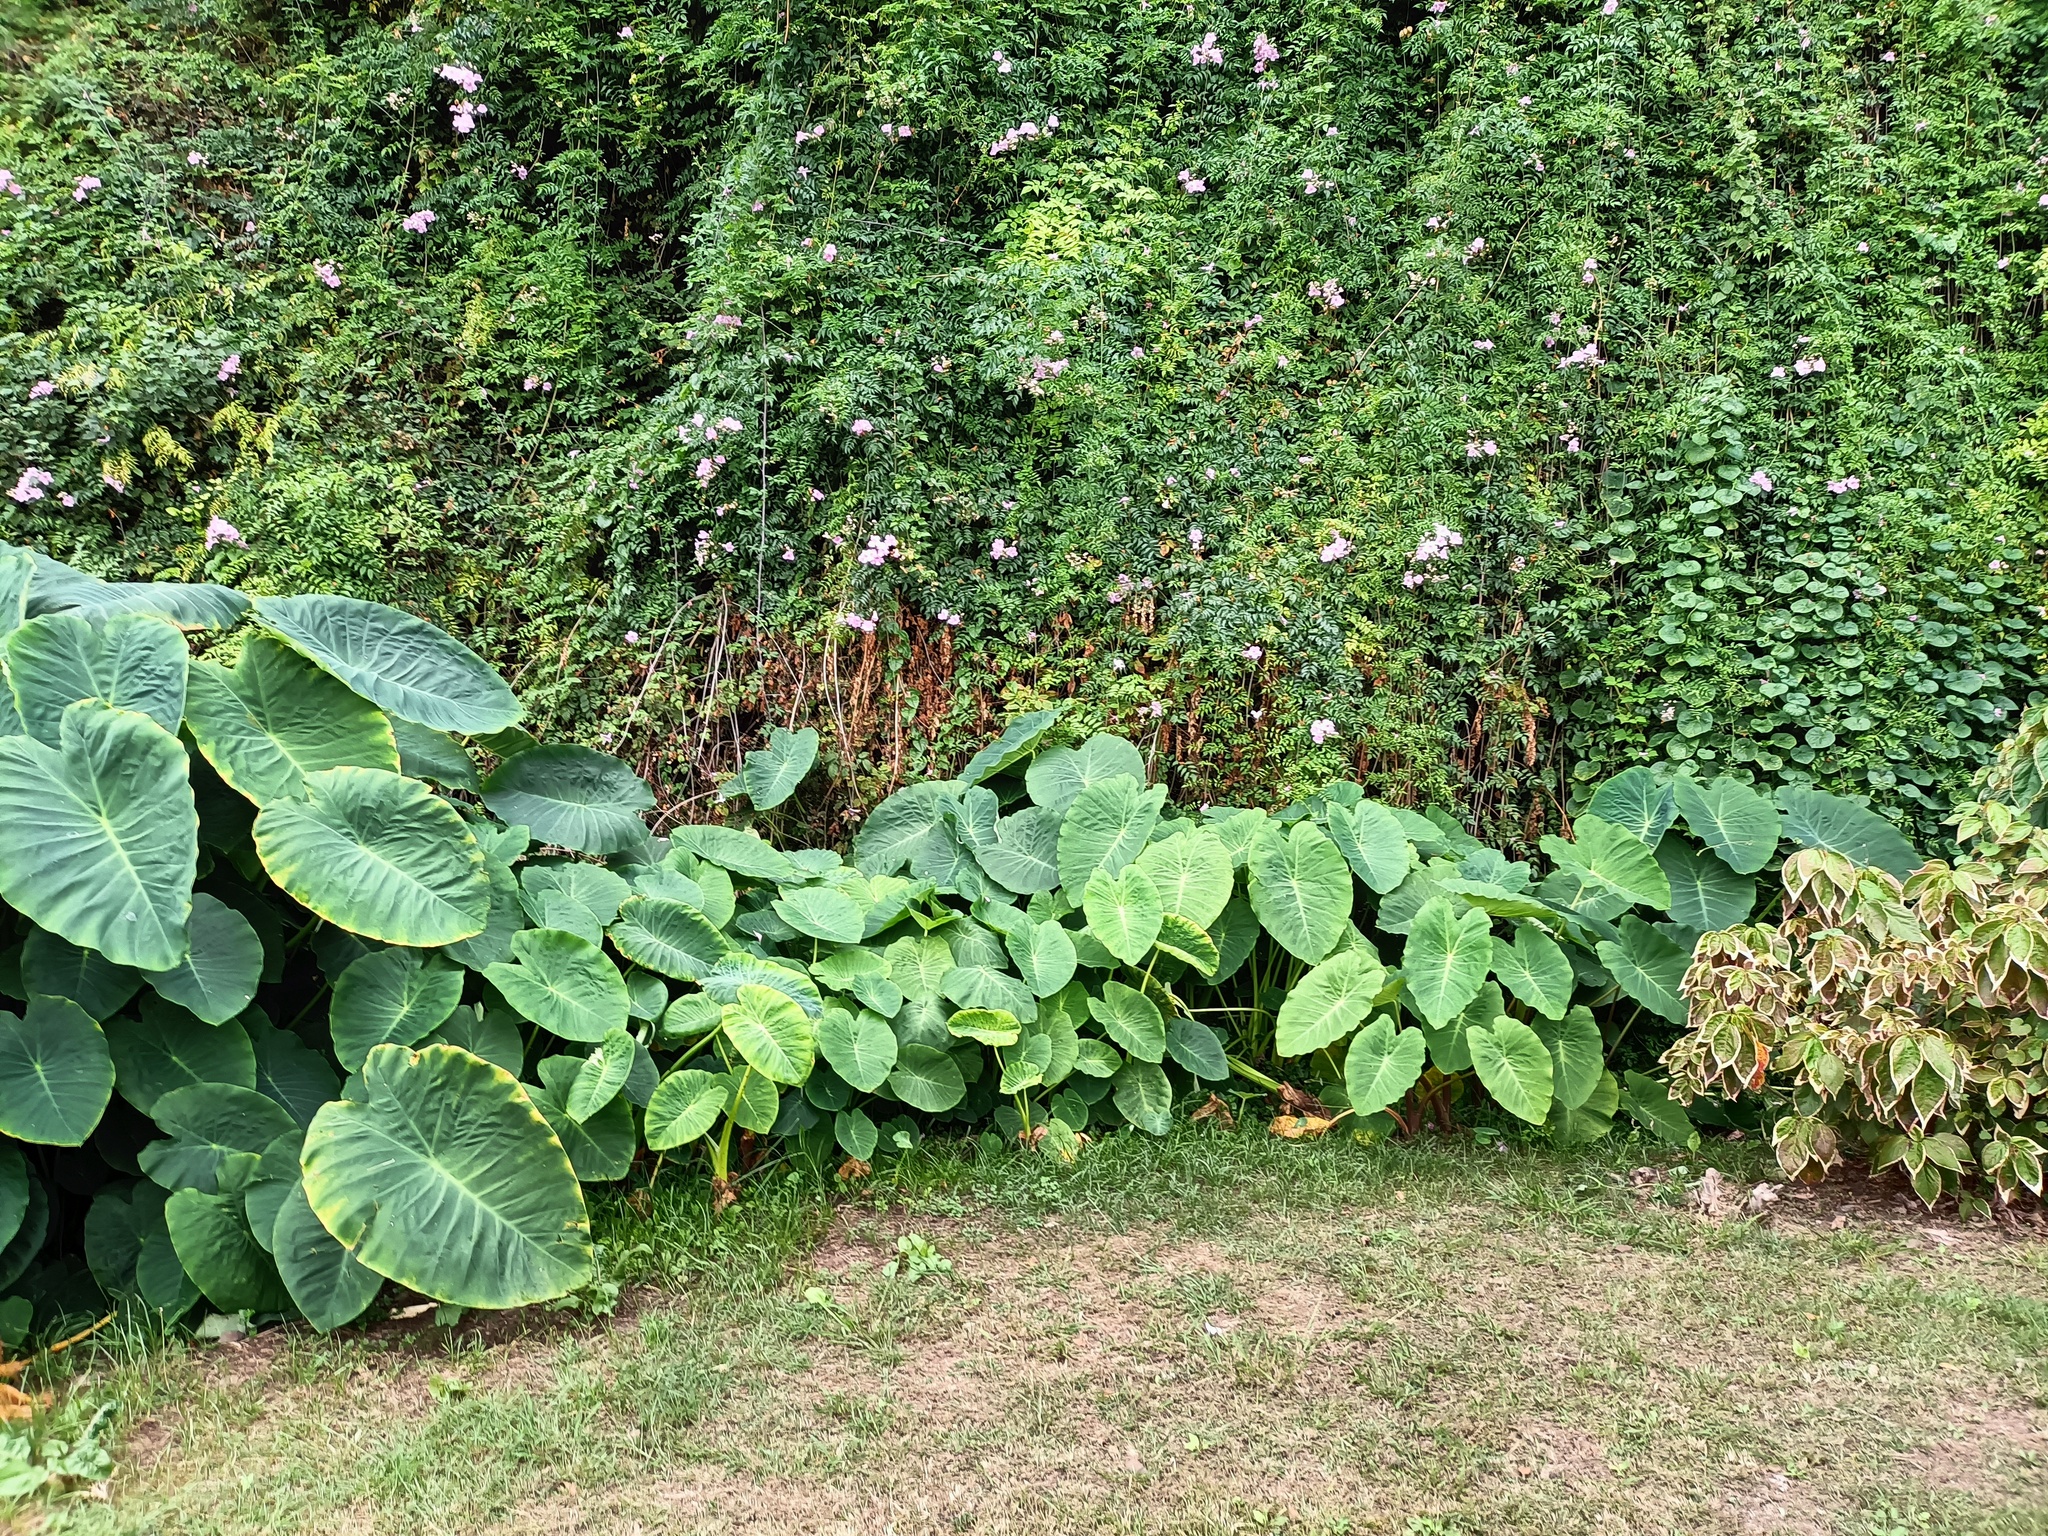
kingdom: Plantae
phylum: Tracheophyta
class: Liliopsida
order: Alismatales
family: Araceae
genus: Colocasia
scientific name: Colocasia esculenta
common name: Taro
